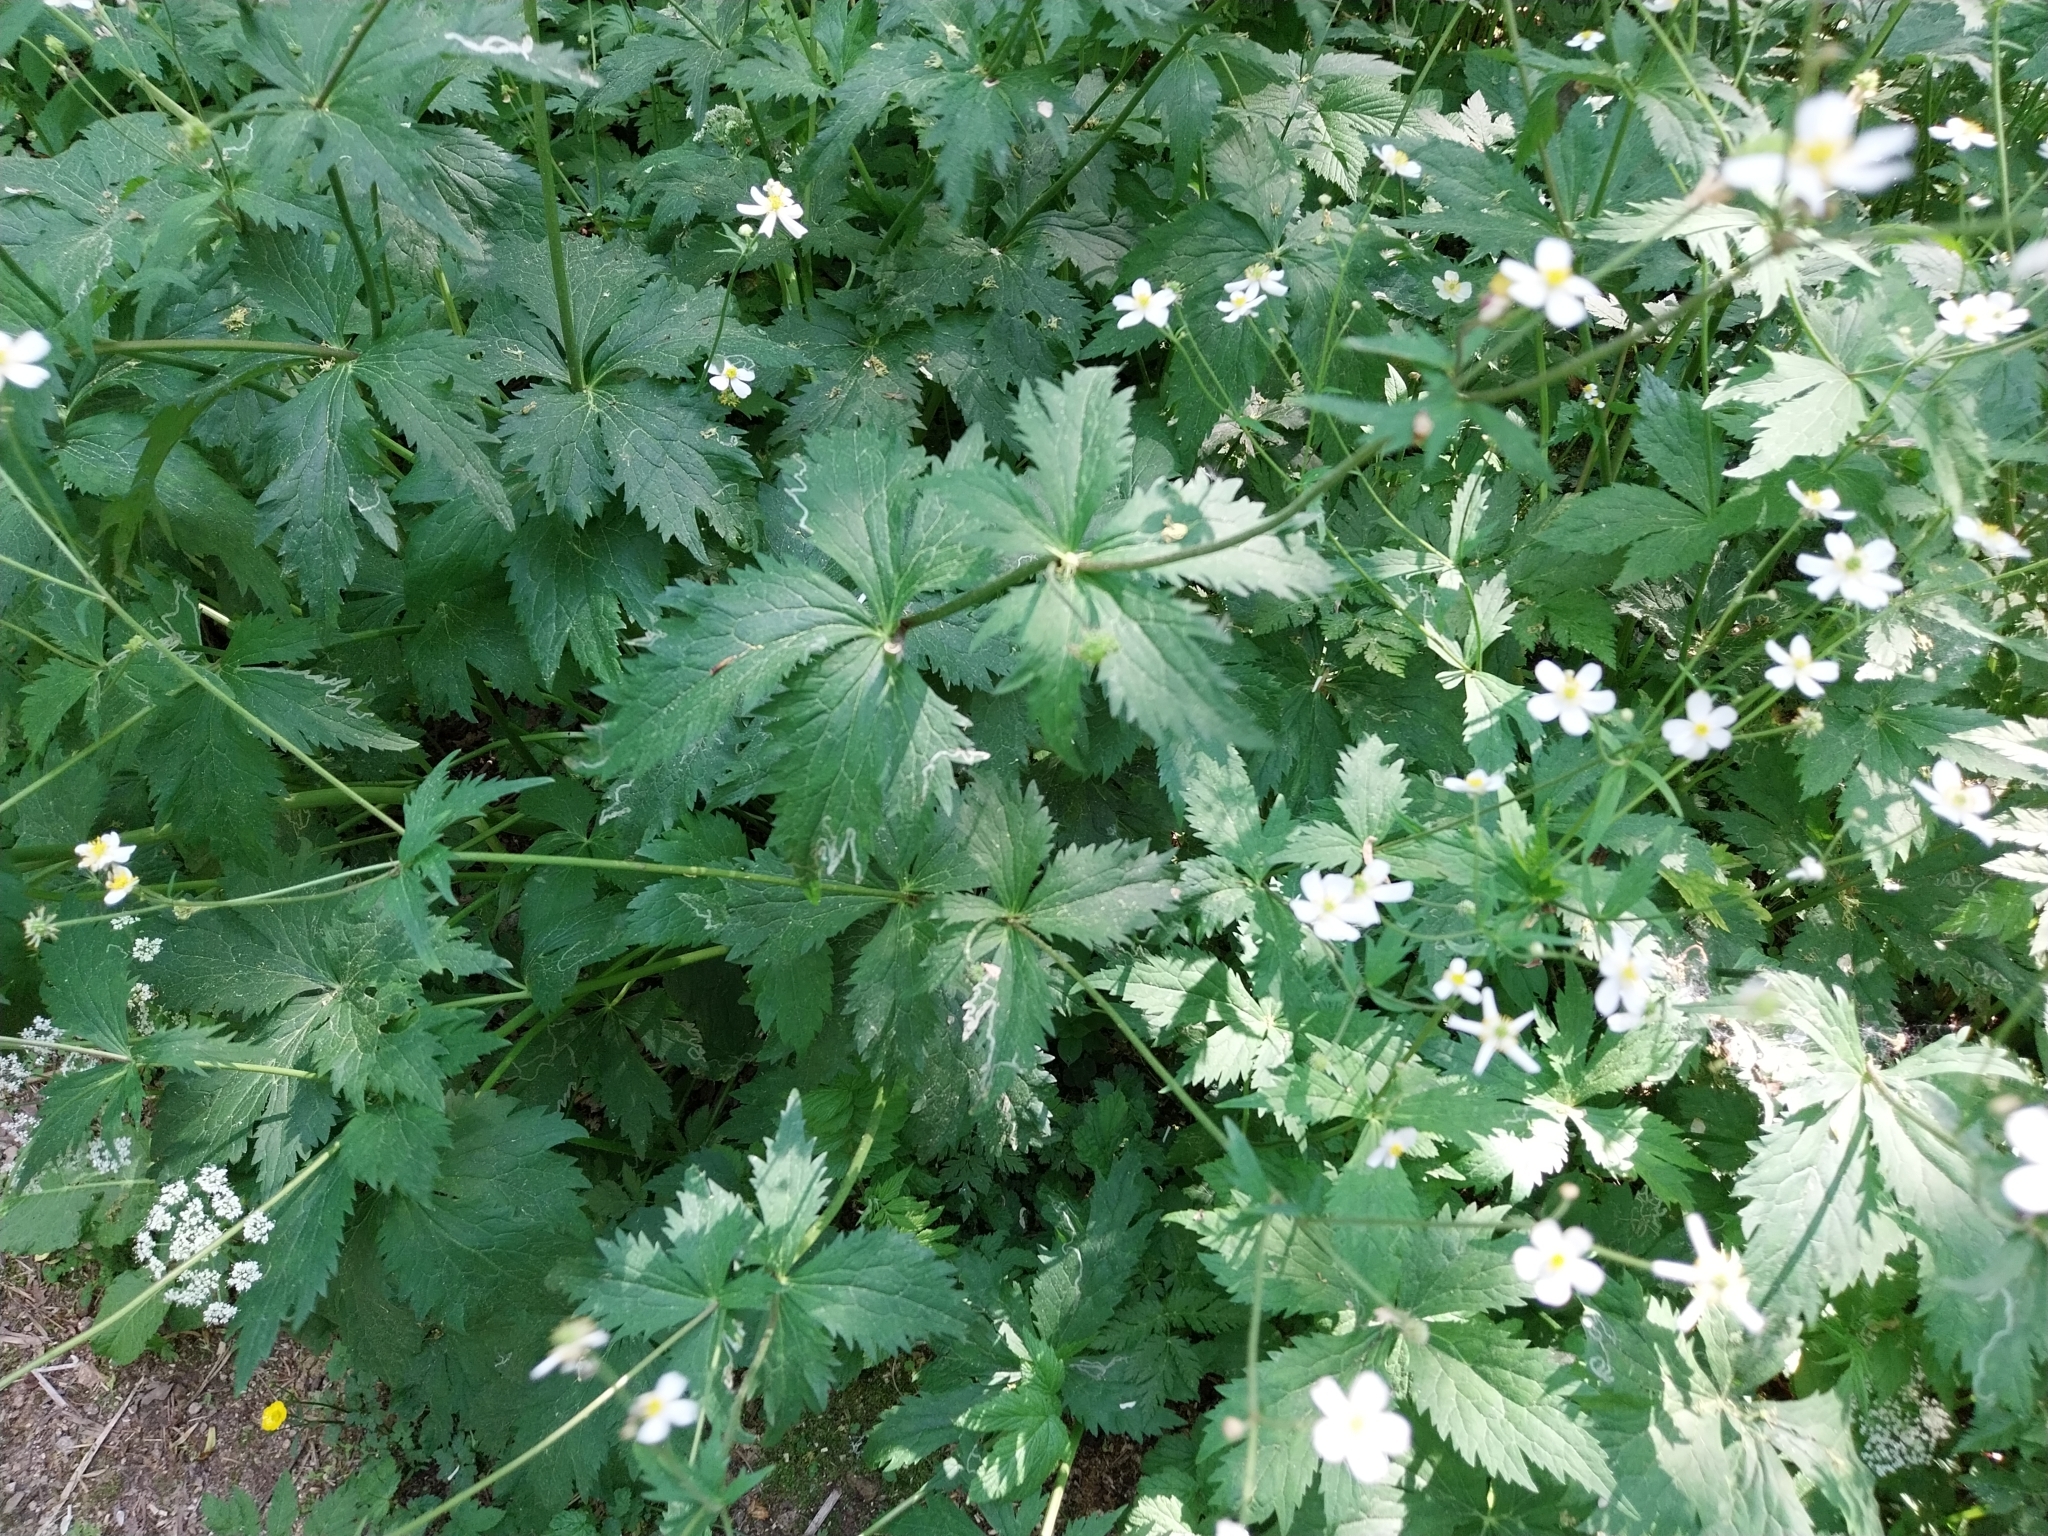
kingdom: Plantae
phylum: Tracheophyta
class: Magnoliopsida
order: Ranunculales
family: Ranunculaceae
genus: Ranunculus
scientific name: Ranunculus aconitifolius
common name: Aconite-leaved buttercup
